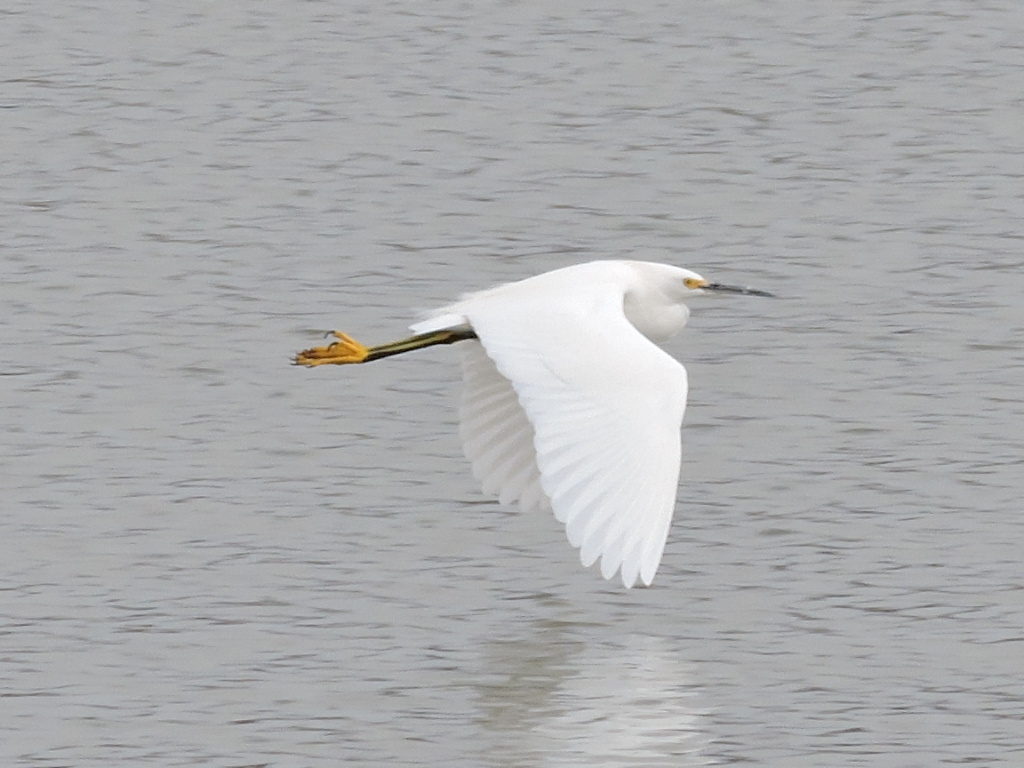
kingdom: Animalia
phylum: Chordata
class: Aves
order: Pelecaniformes
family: Ardeidae
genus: Egretta
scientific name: Egretta thula
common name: Snowy egret
